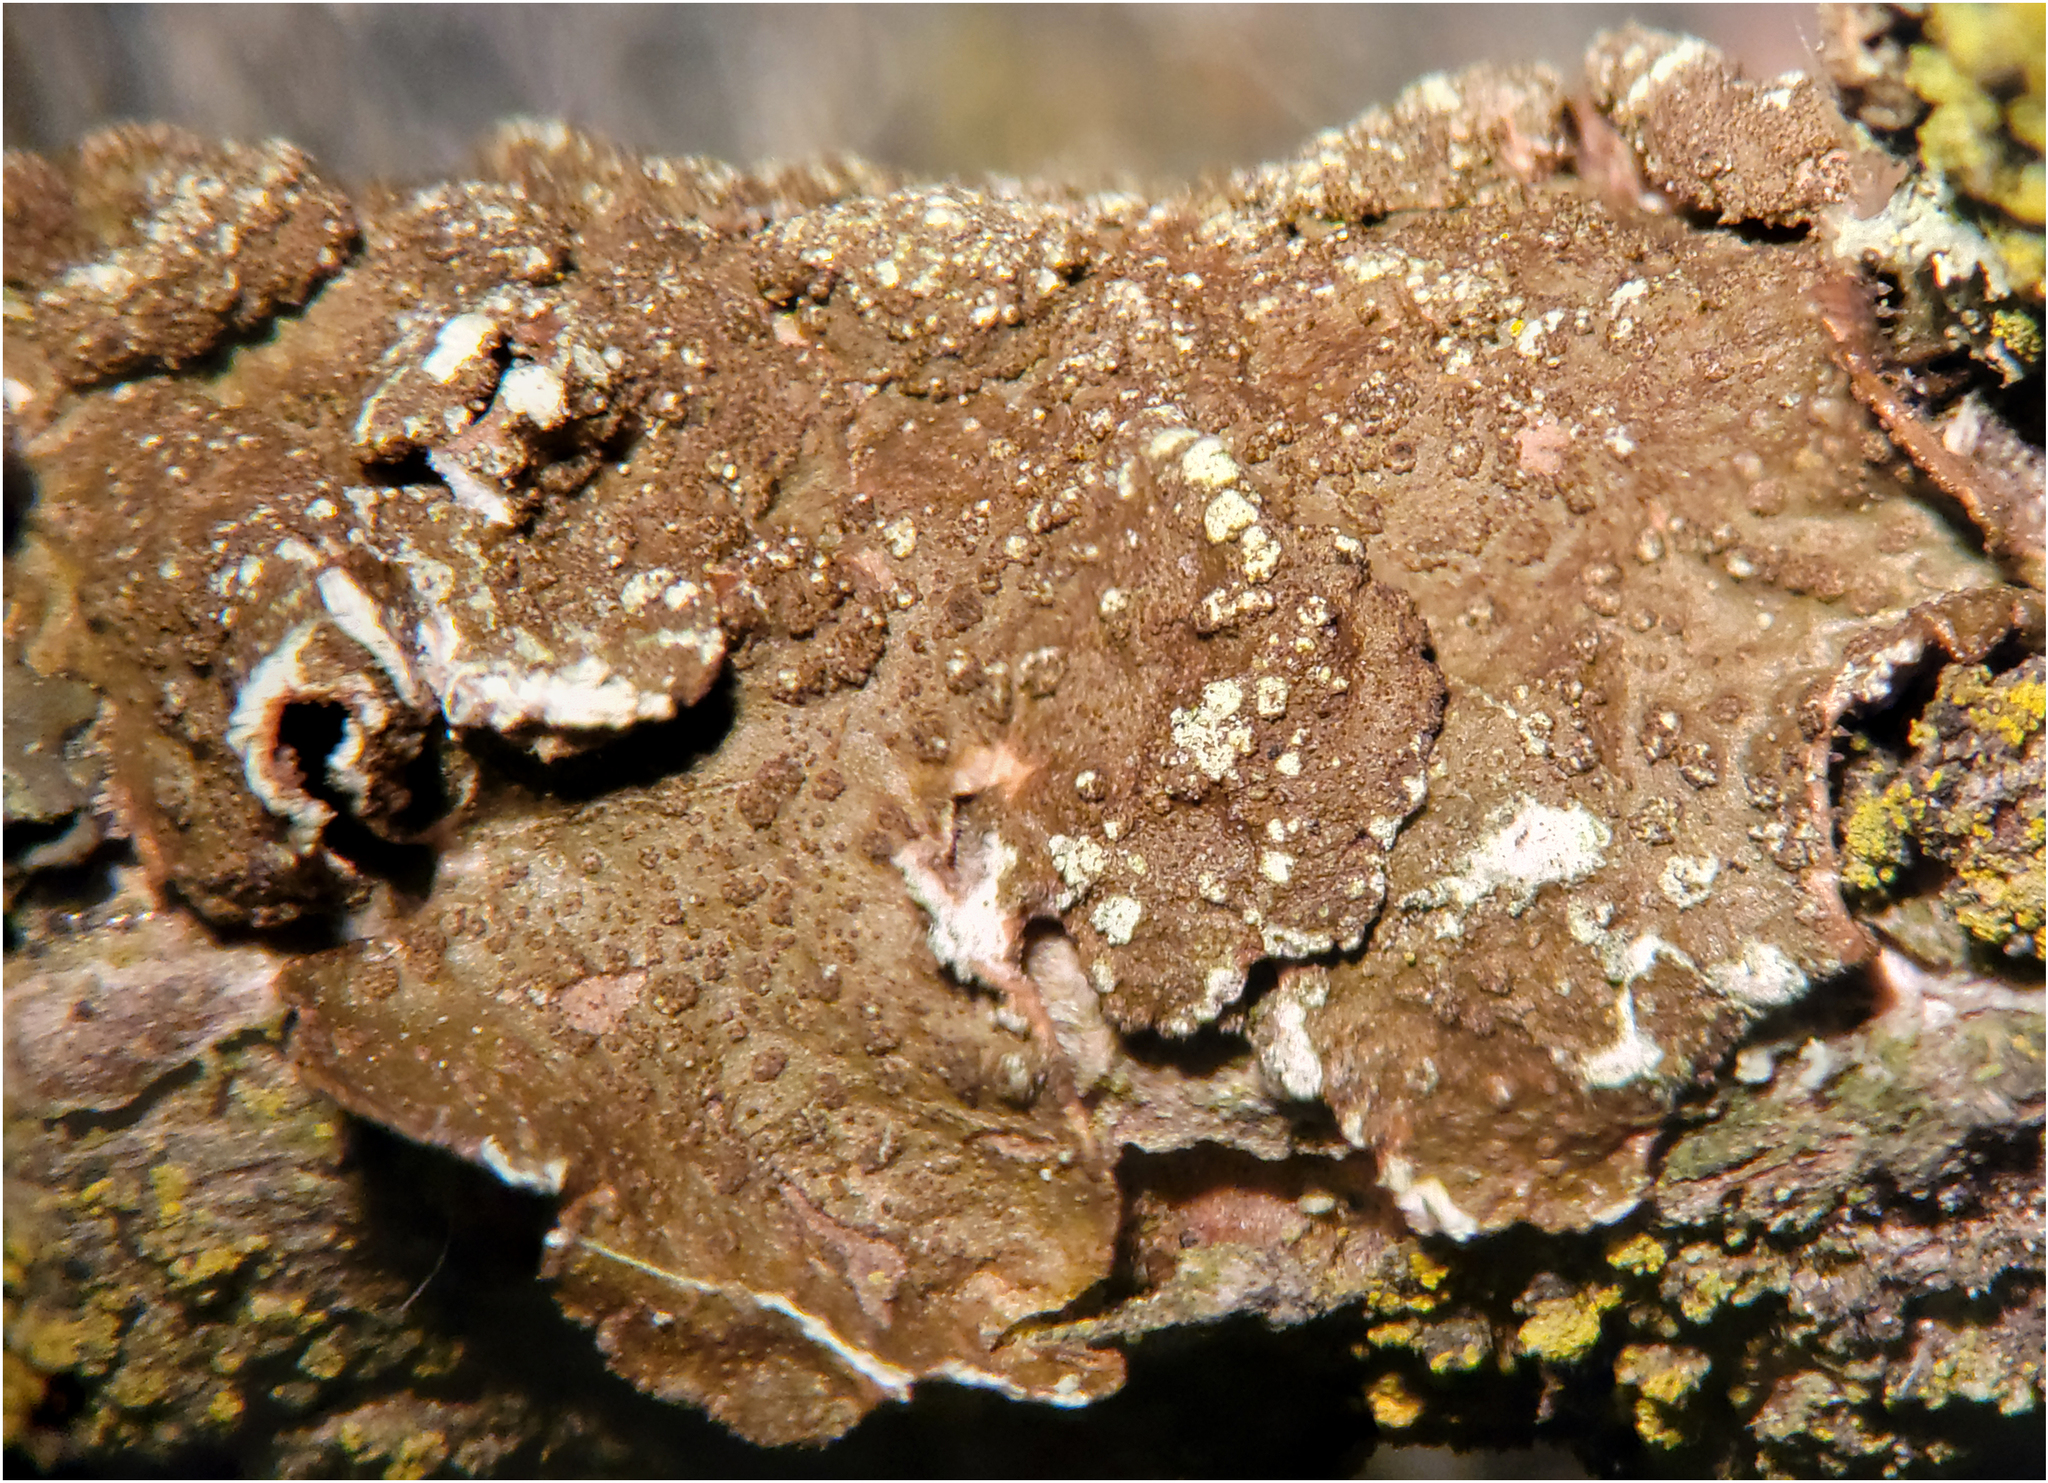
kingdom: Fungi
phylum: Ascomycota
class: Lecanoromycetes
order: Lecanorales
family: Parmeliaceae
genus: Melanelixia
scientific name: Melanelixia subaurifera
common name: Abraded camouflage lichen
